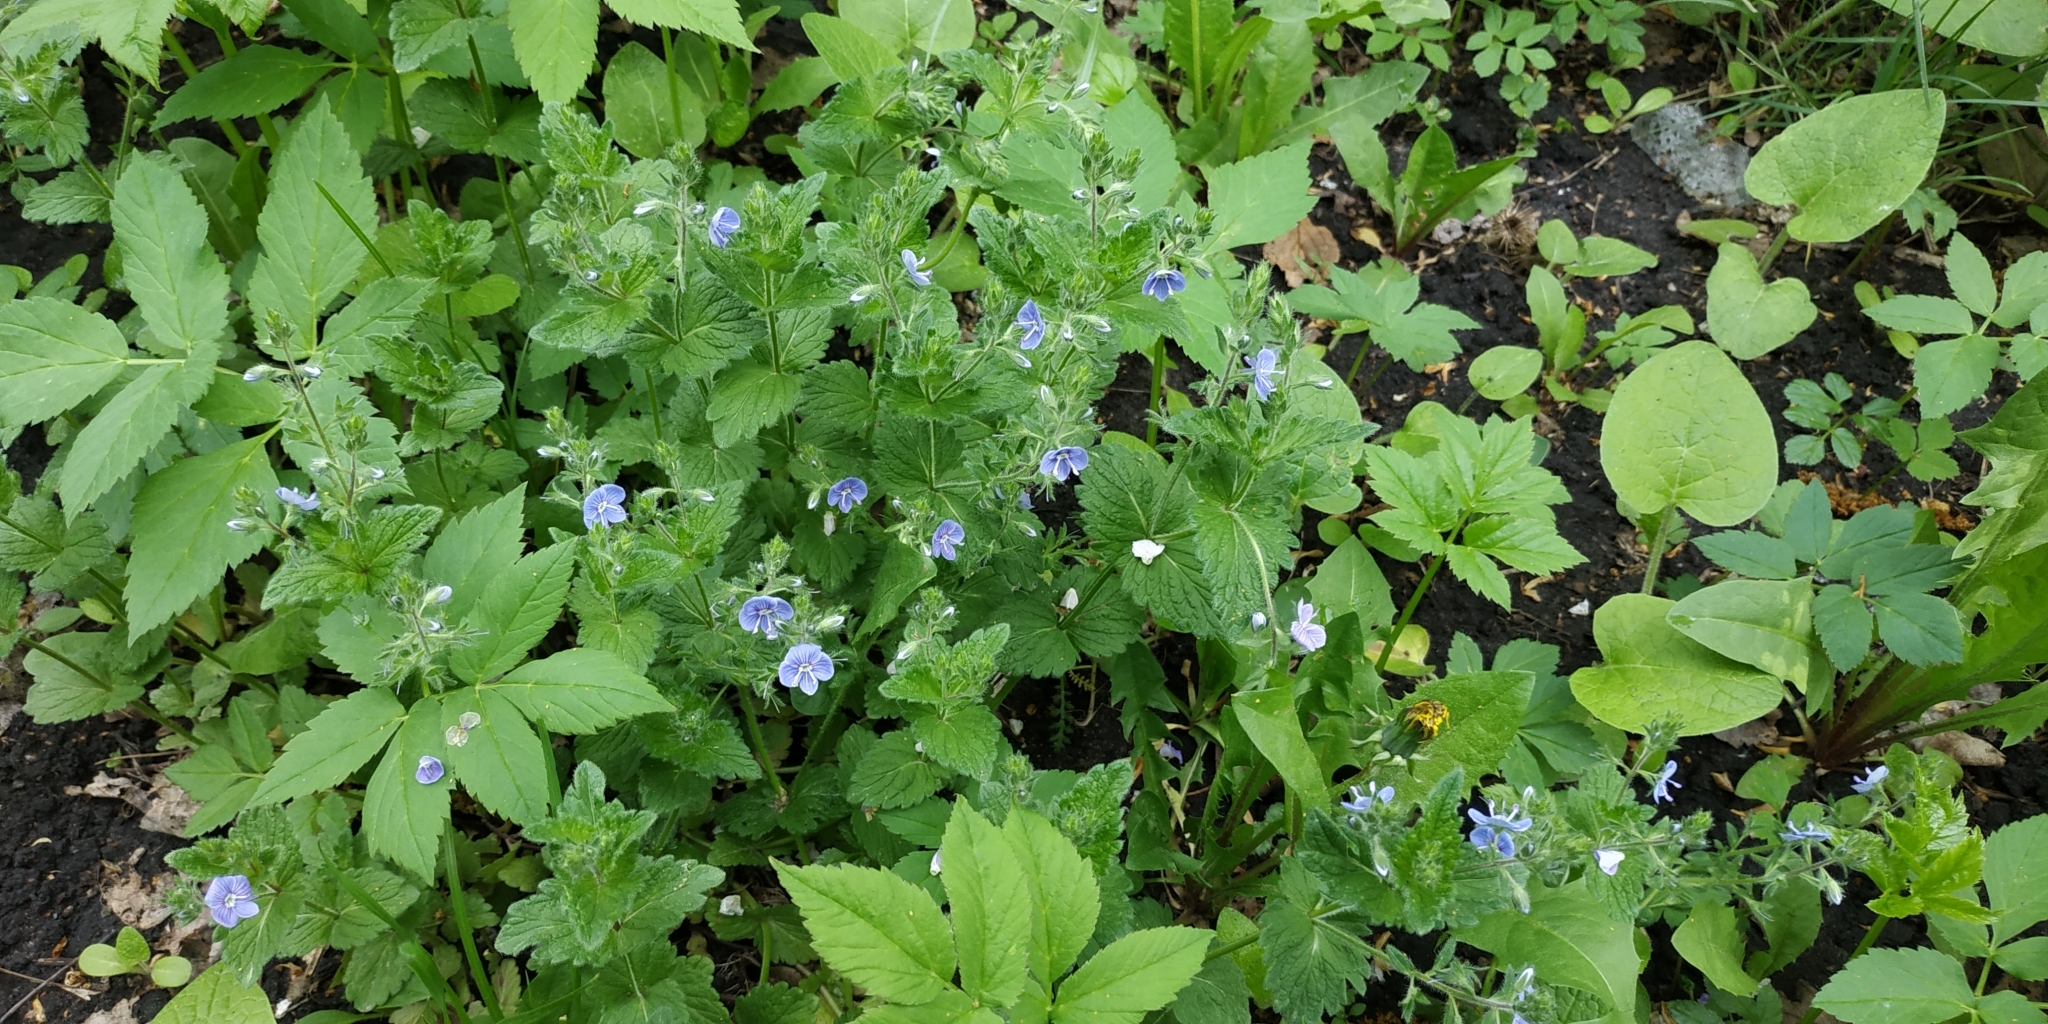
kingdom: Plantae
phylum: Tracheophyta
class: Magnoliopsida
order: Lamiales
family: Plantaginaceae
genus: Veronica
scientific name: Veronica chamaedrys
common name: Germander speedwell
